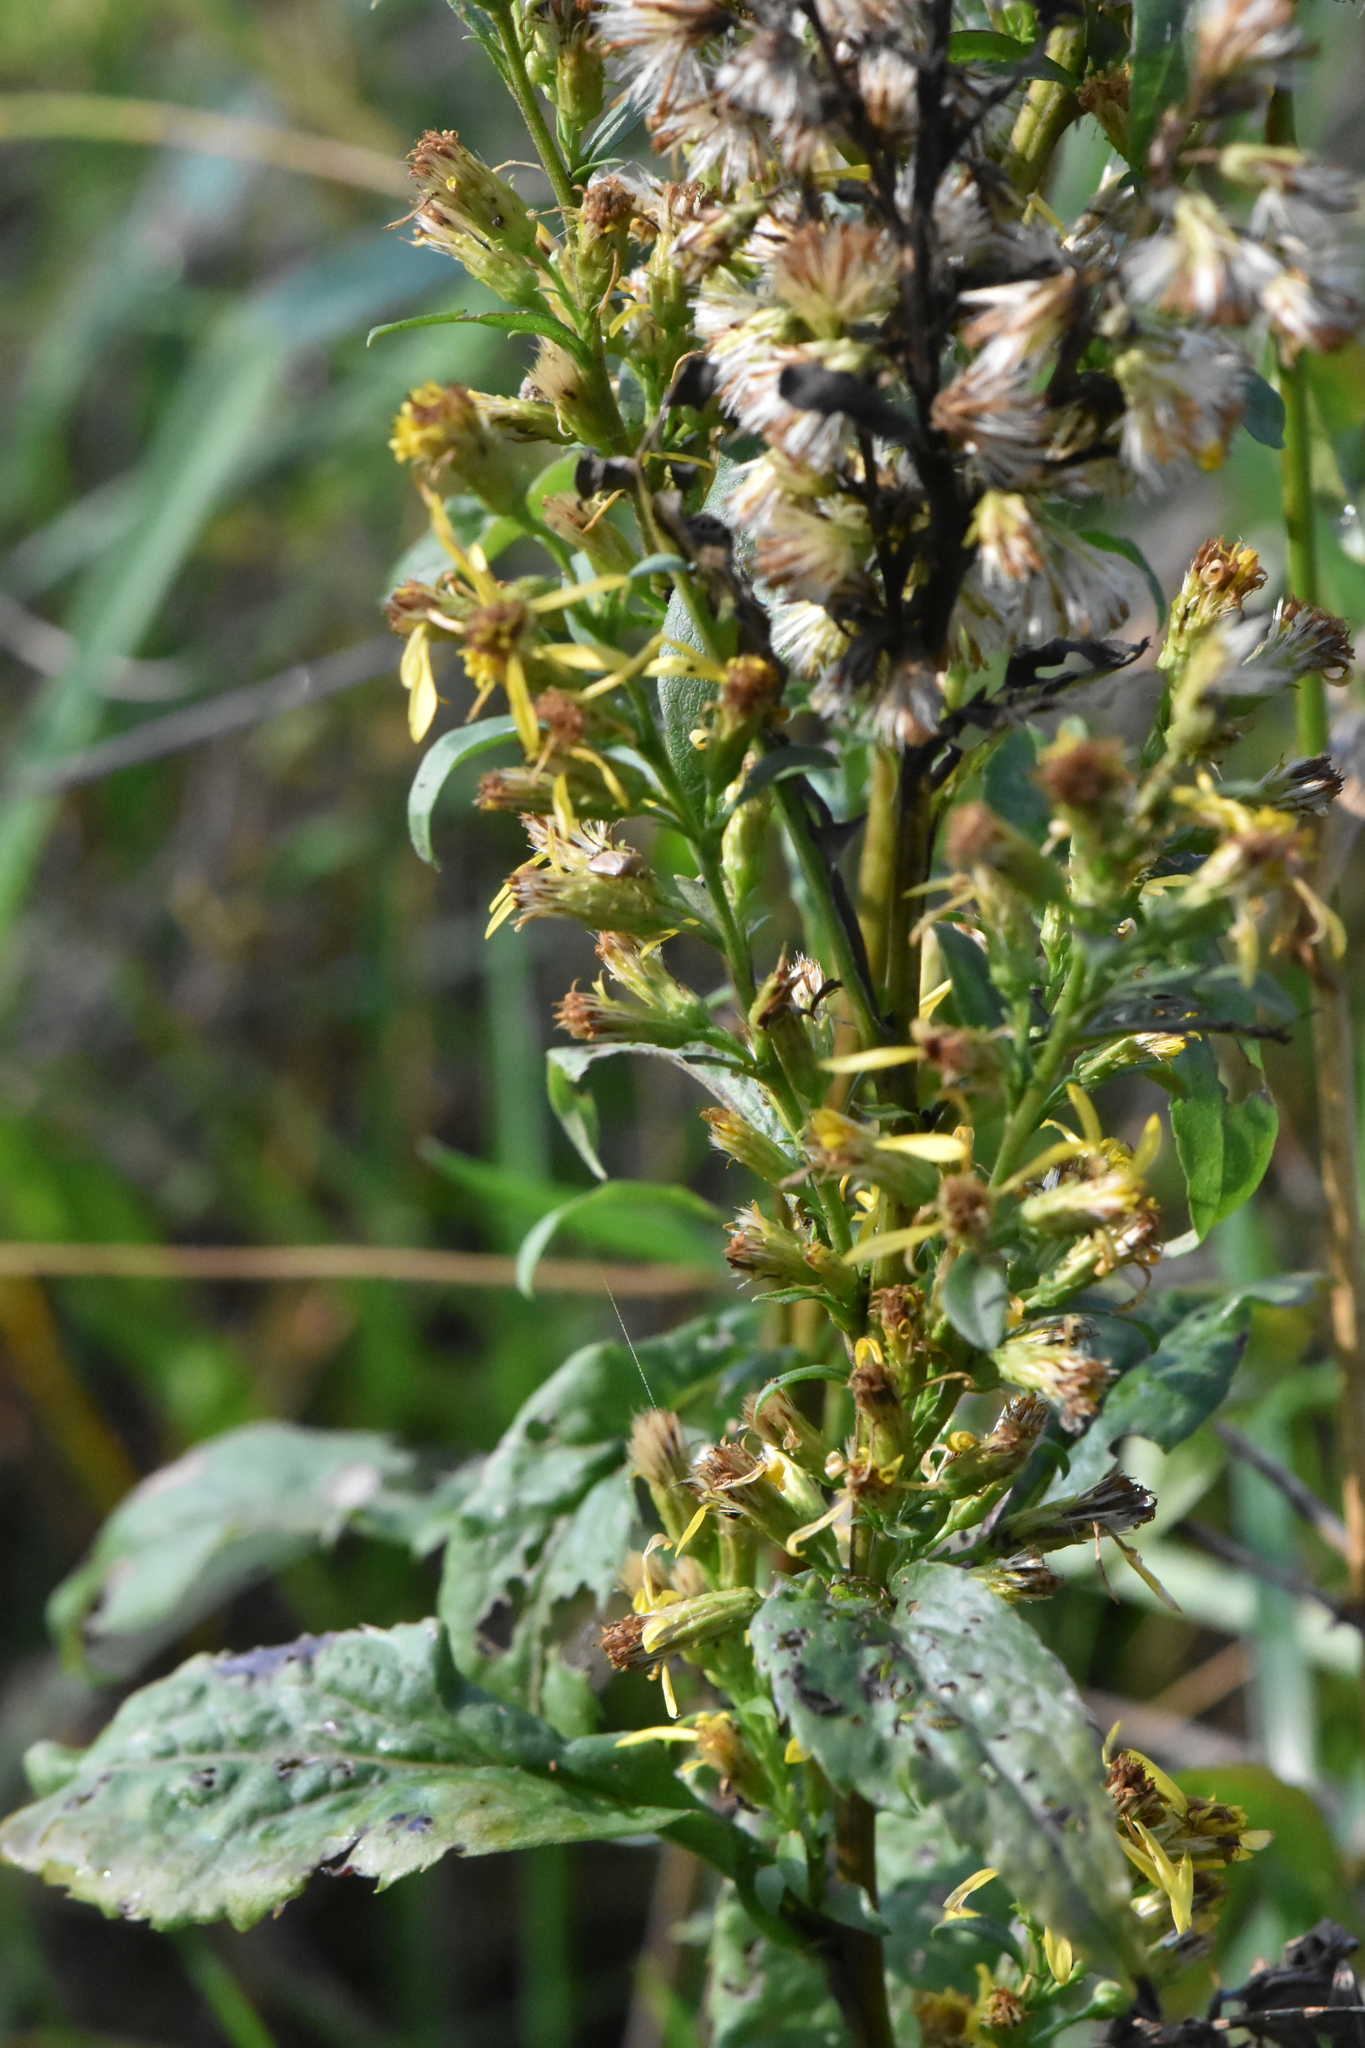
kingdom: Plantae
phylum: Tracheophyta
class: Magnoliopsida
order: Asterales
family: Asteraceae
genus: Solidago
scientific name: Solidago virgaurea
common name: Goldenrod
